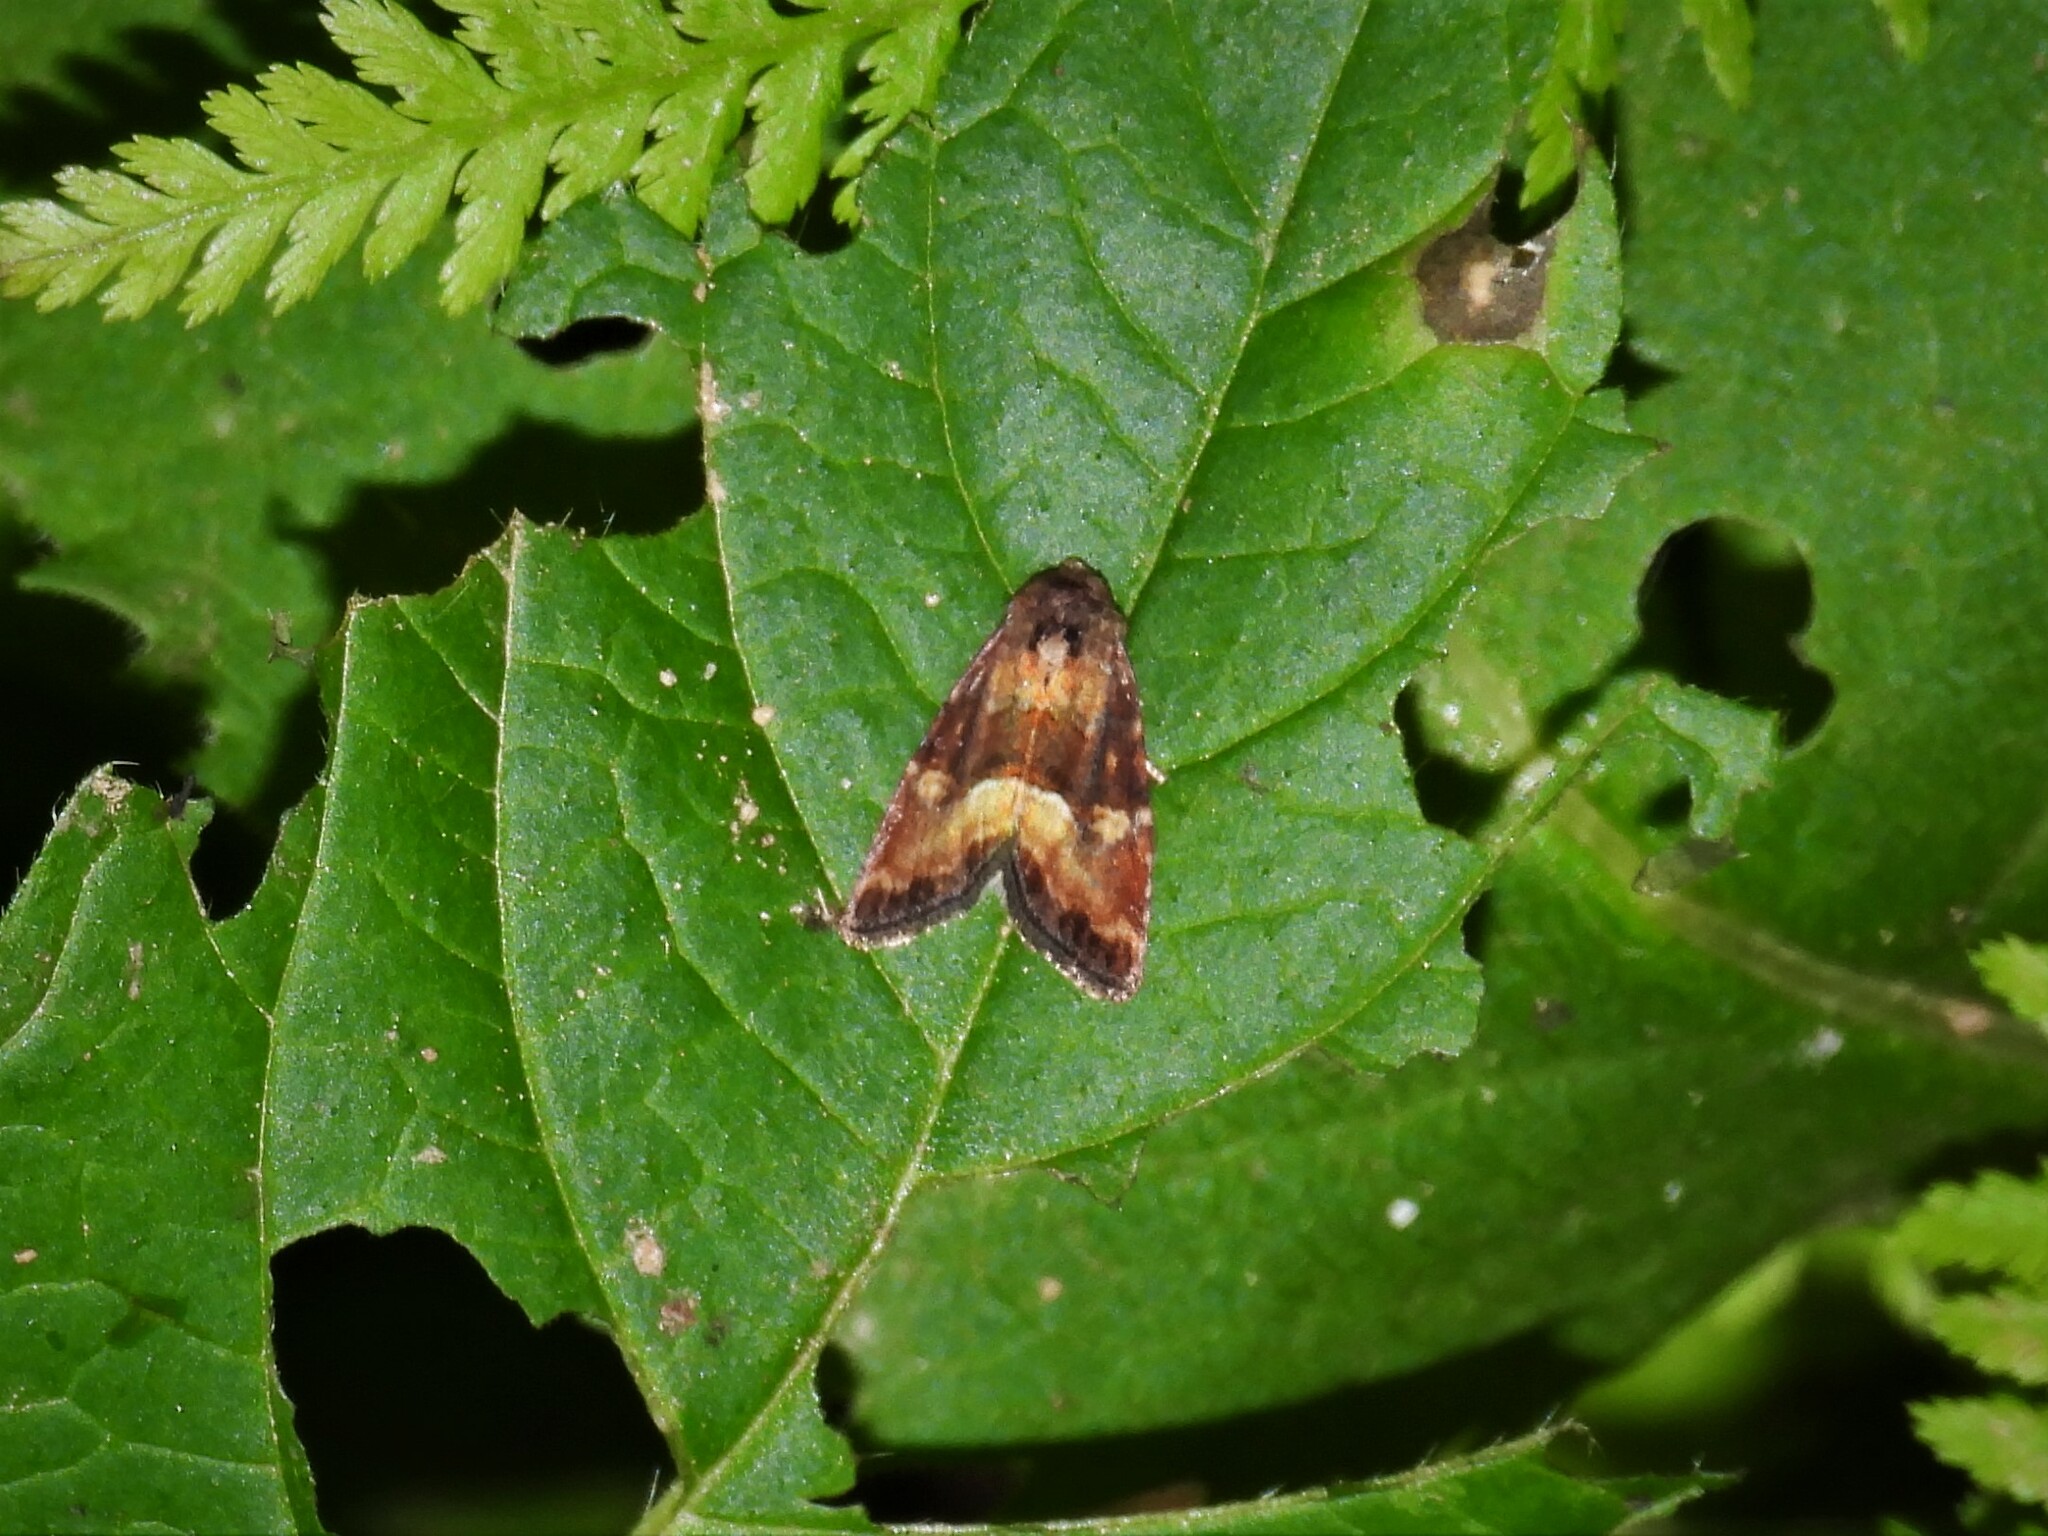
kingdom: Animalia
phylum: Arthropoda
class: Insecta
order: Lepidoptera
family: Noctuidae
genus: Photedes
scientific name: Photedes captiuncula
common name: Least minor
